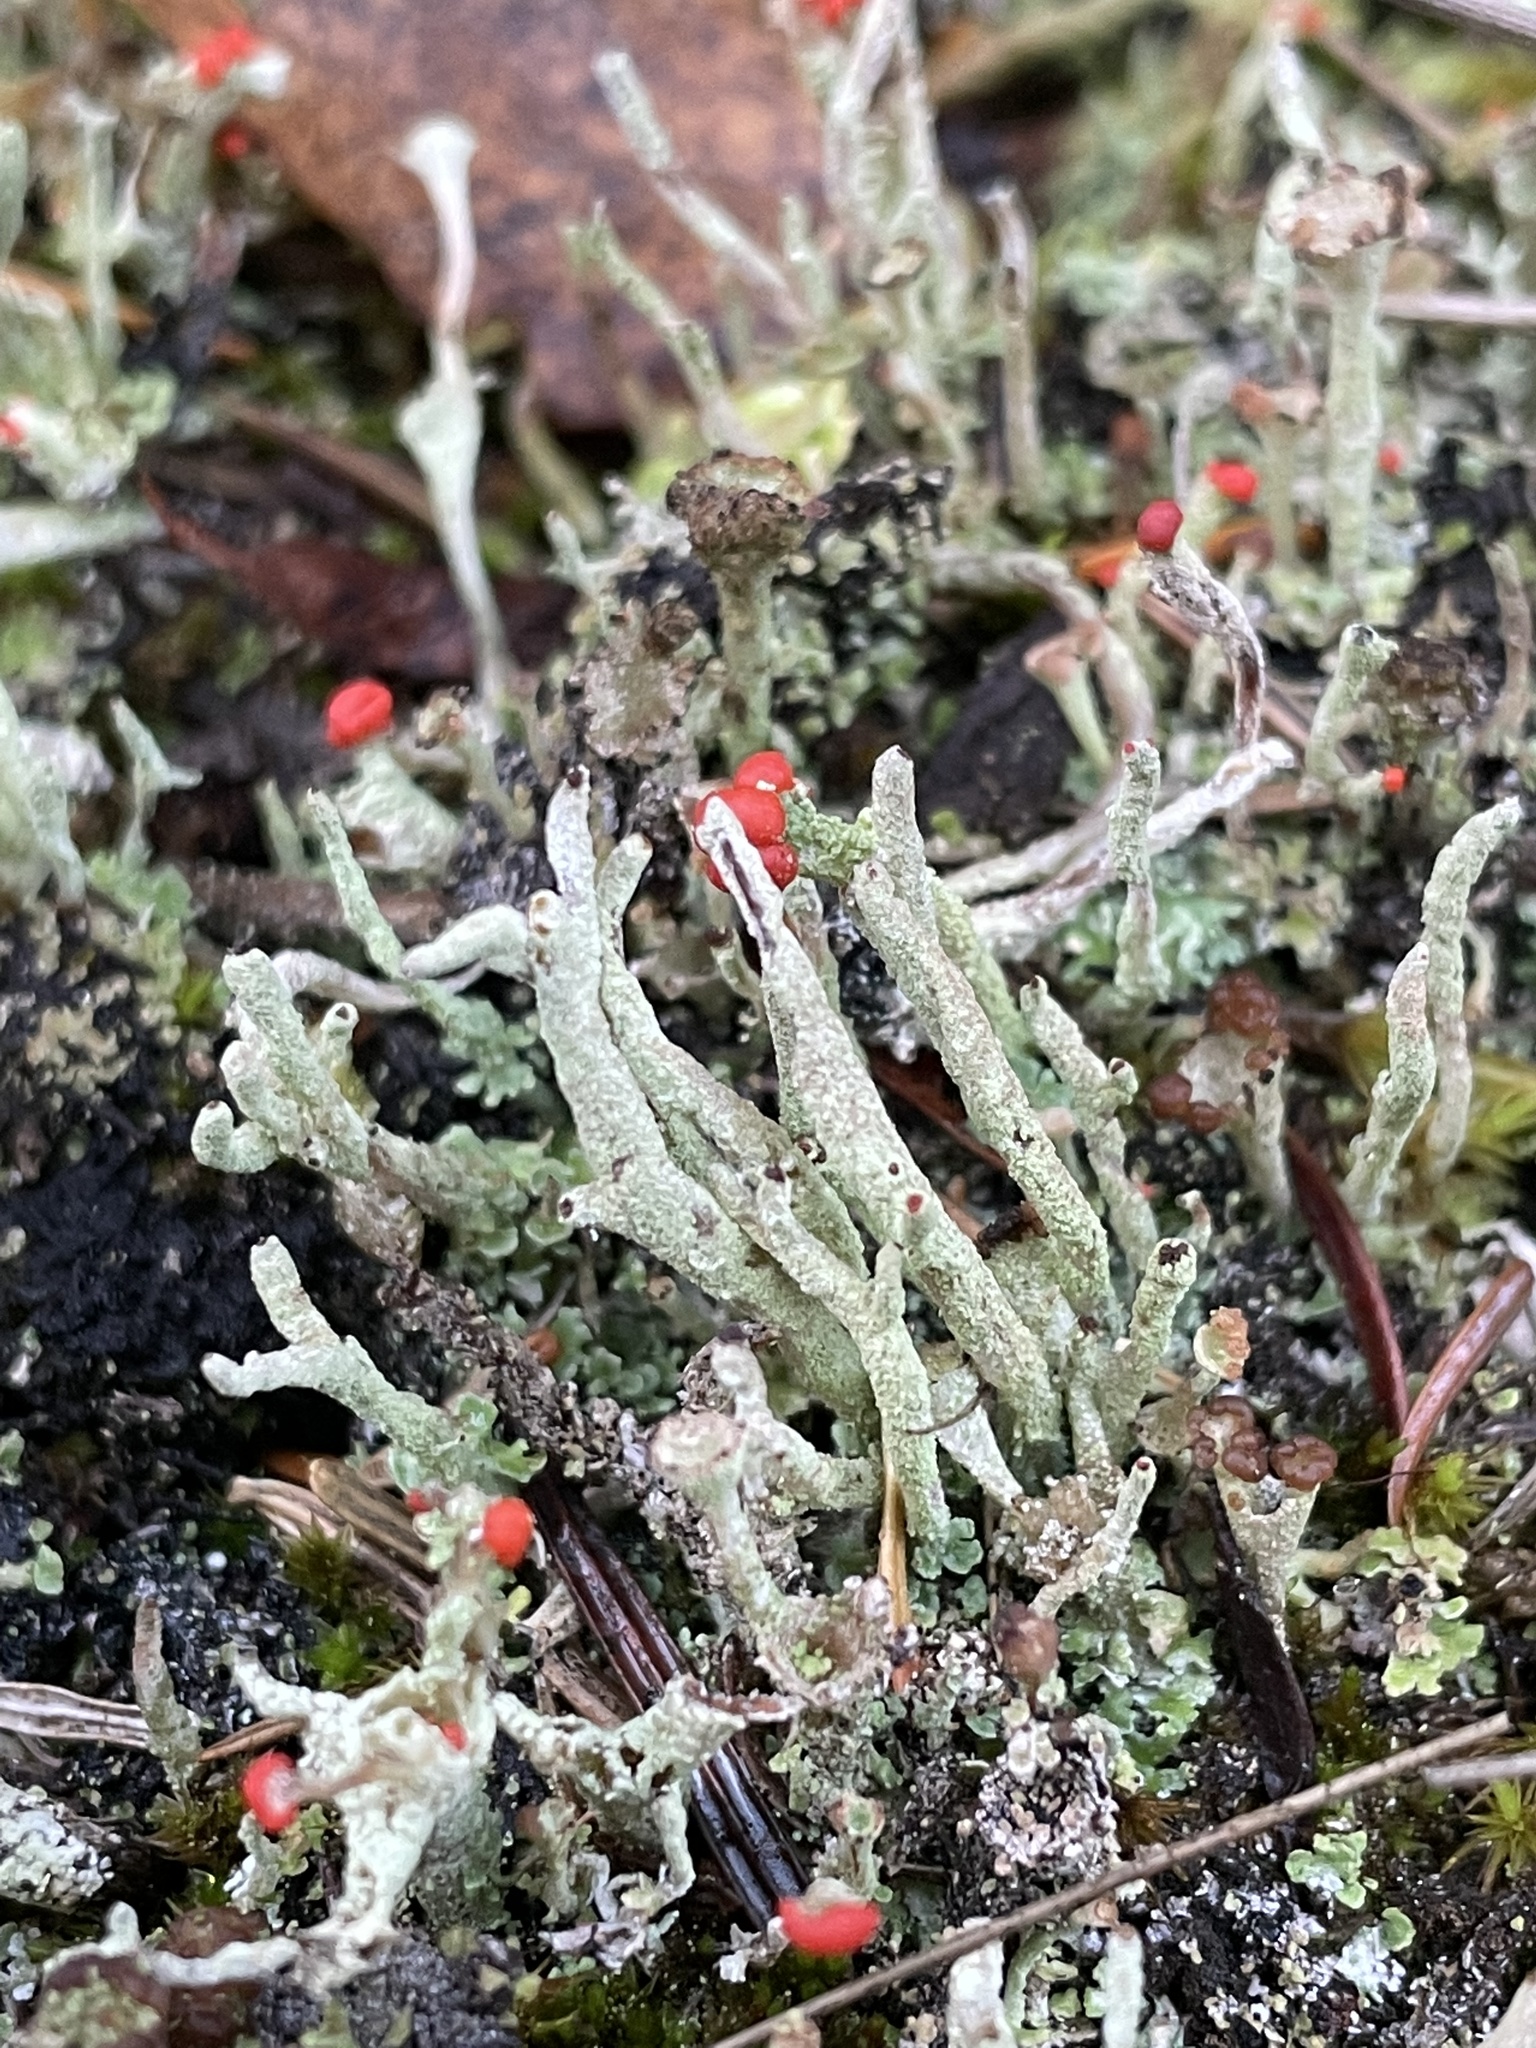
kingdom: Fungi
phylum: Ascomycota
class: Lecanoromycetes
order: Lecanorales
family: Cladoniaceae
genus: Cladonia
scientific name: Cladonia macilenta
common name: Lipstick powderhorn
